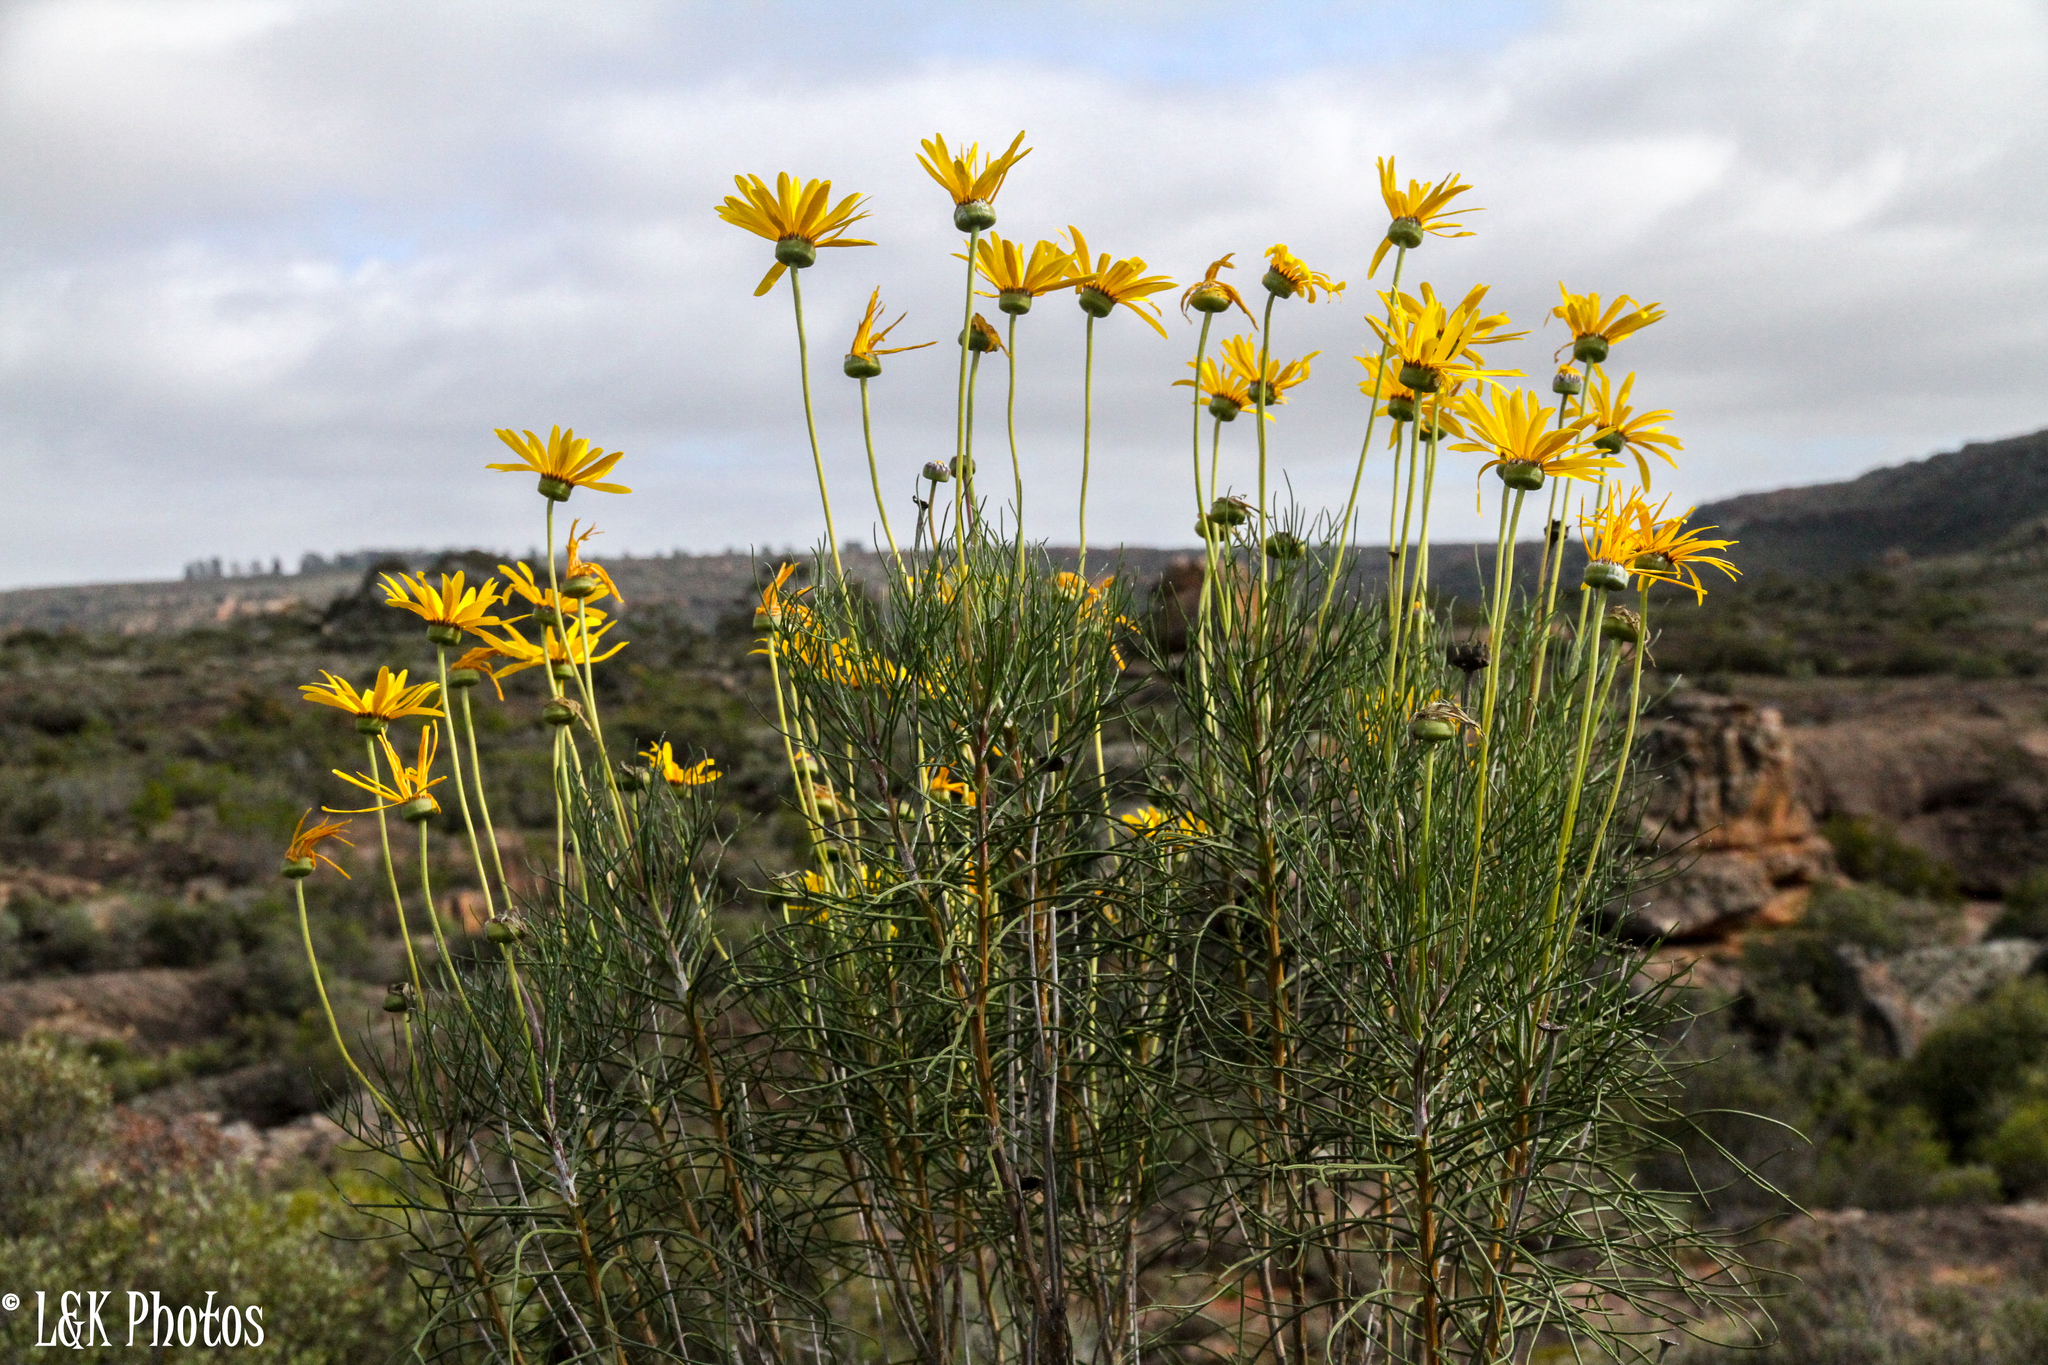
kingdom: Plantae
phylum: Tracheophyta
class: Magnoliopsida
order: Asterales
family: Asteraceae
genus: Euryops
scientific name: Euryops speciosissimus
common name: Clanwilliam daisy
